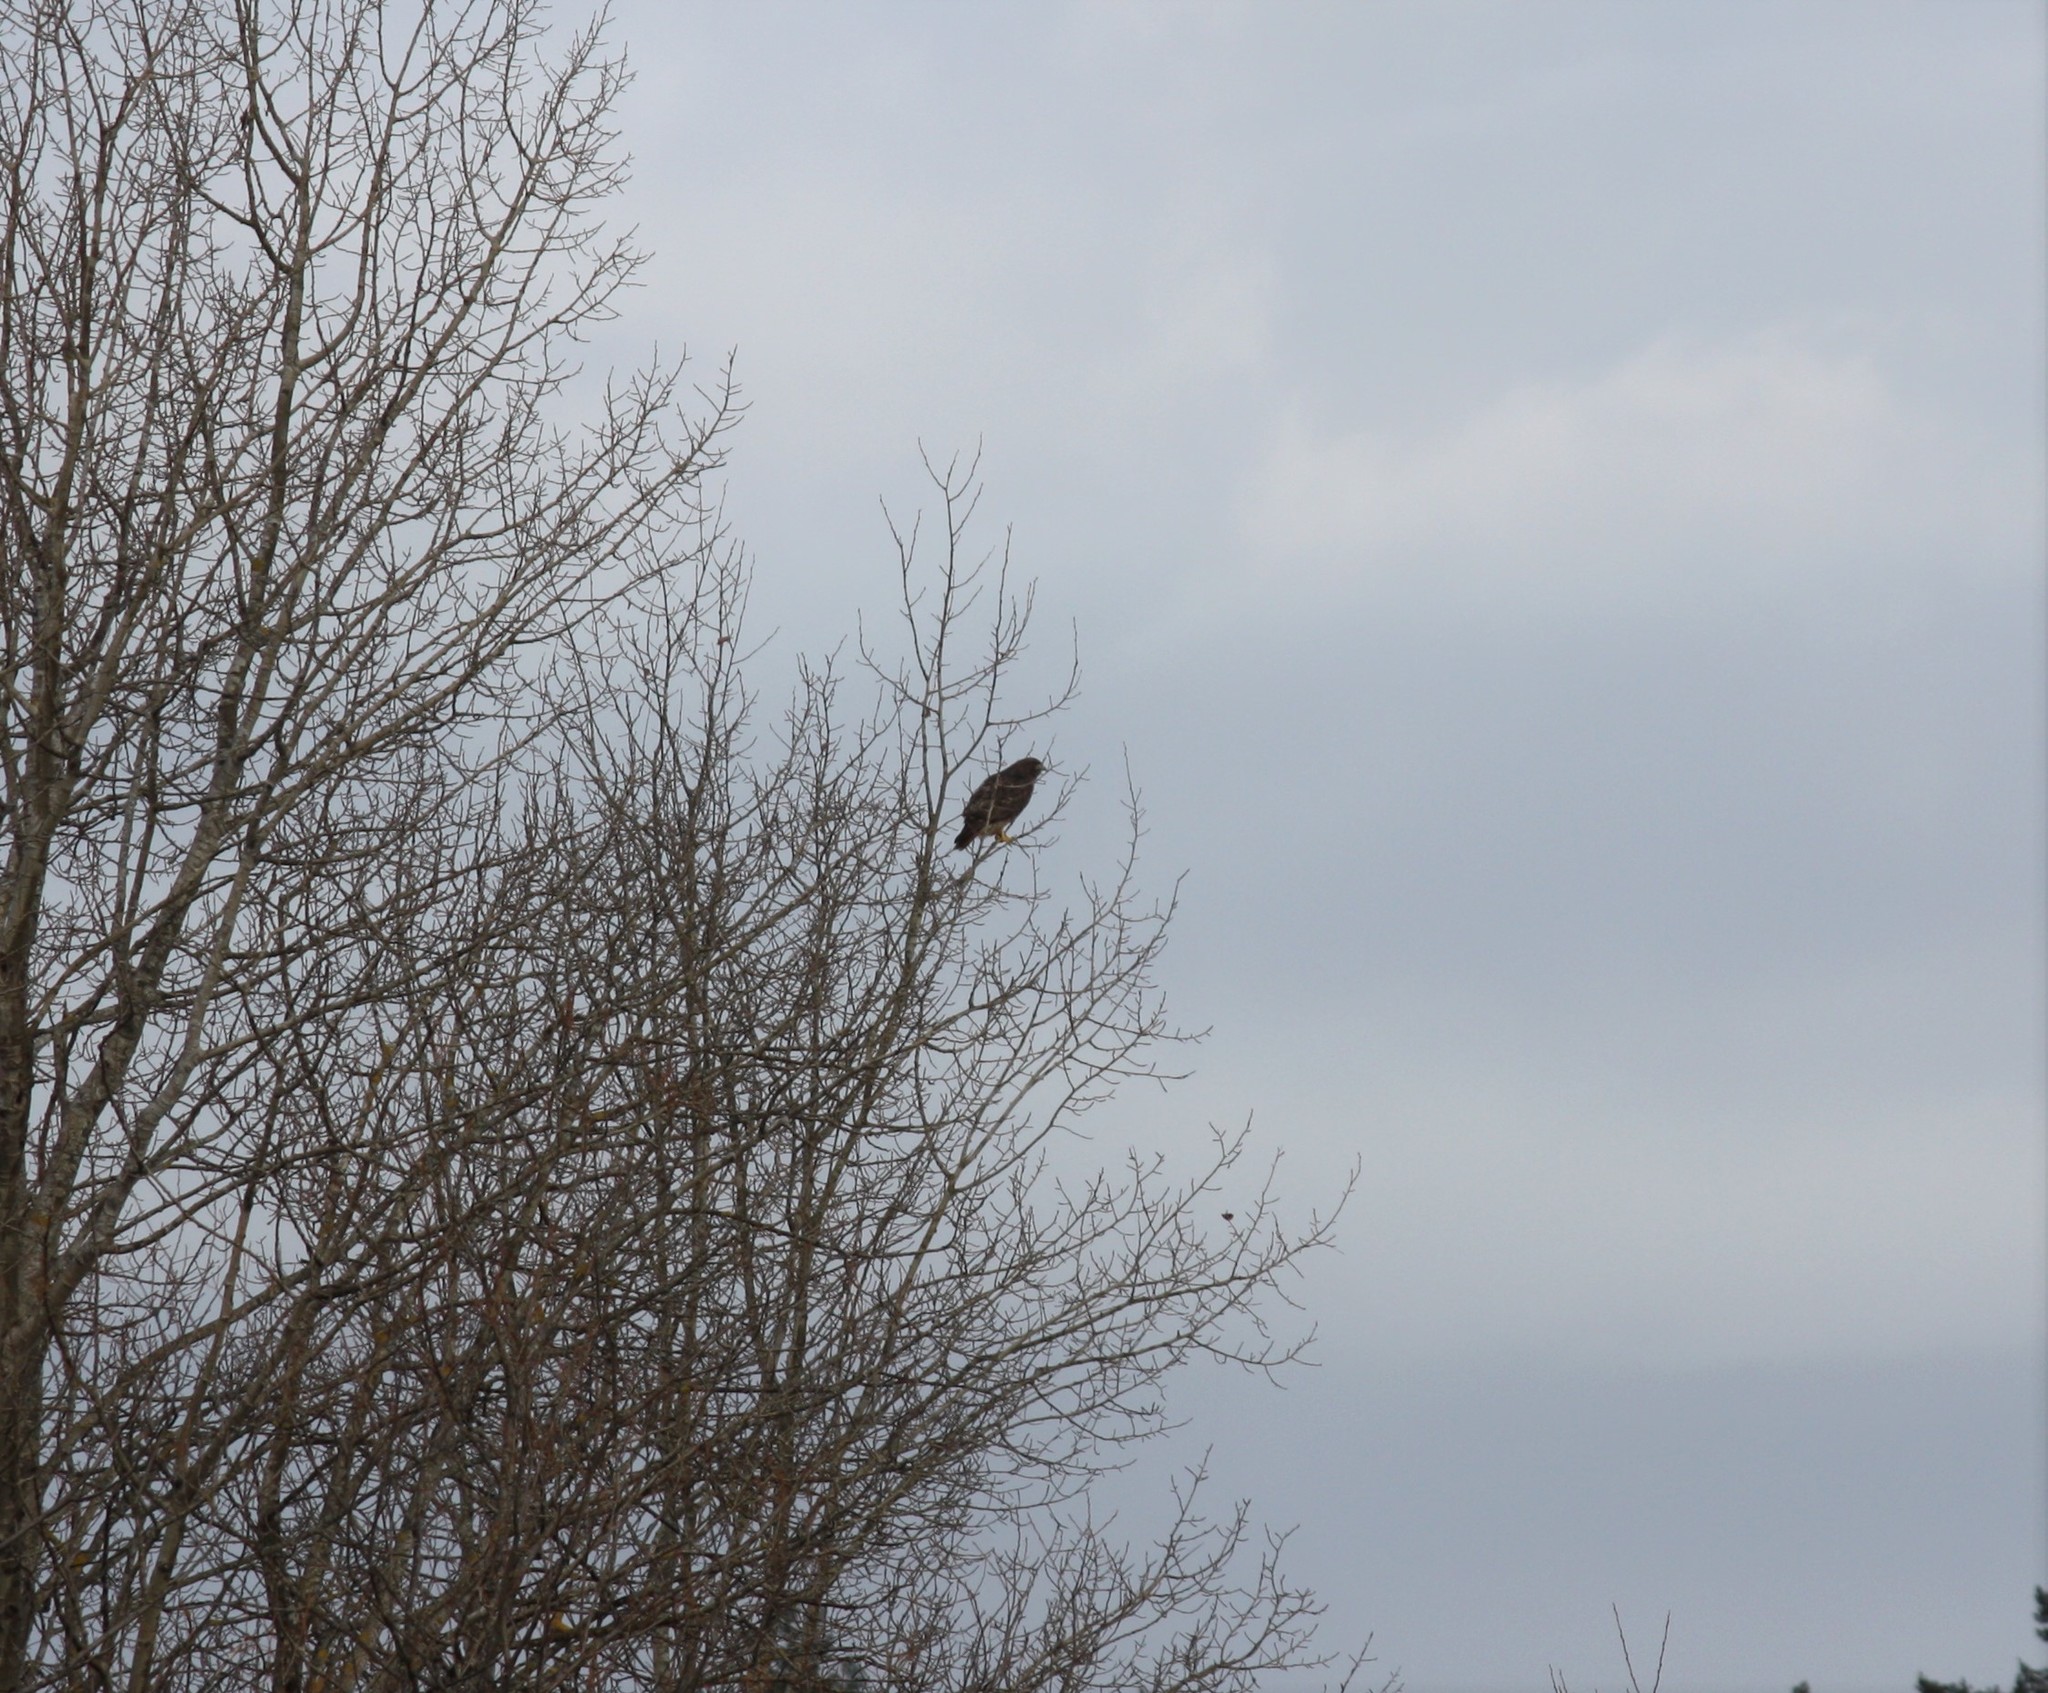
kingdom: Animalia
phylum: Chordata
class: Aves
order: Accipitriformes
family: Accipitridae
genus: Buteo
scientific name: Buteo jamaicensis
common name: Red-tailed hawk
